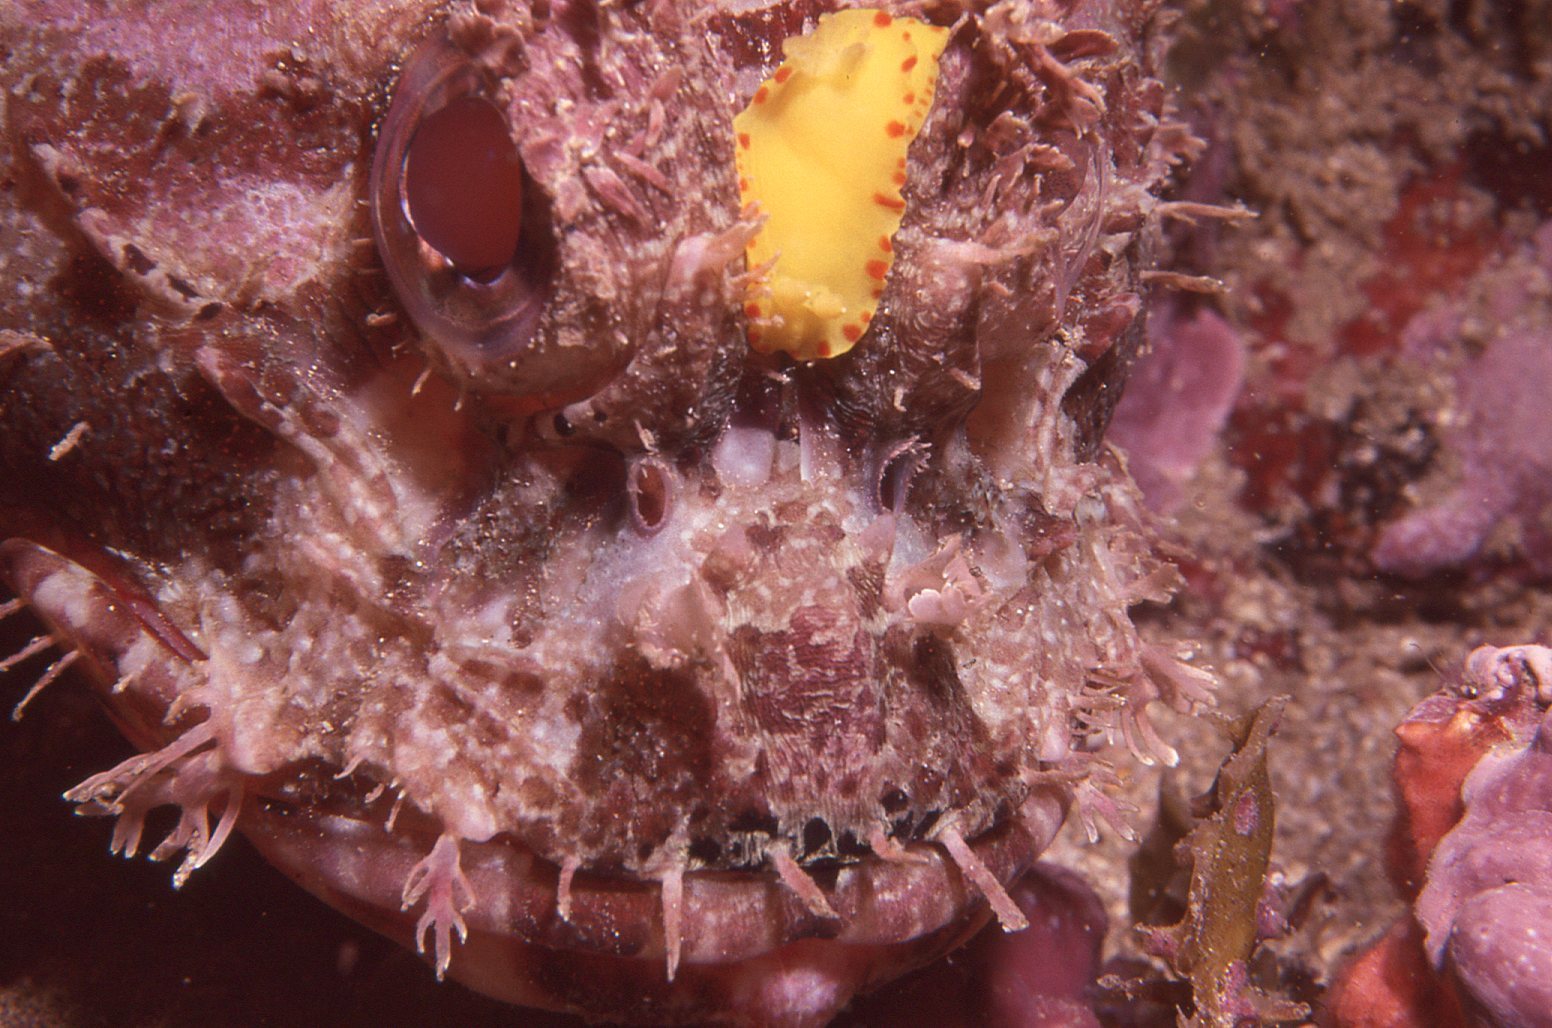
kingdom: Animalia
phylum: Mollusca
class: Gastropoda
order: Nudibranchia
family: Chromodorididae
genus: Diversidoris
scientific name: Diversidoris sulphurea
